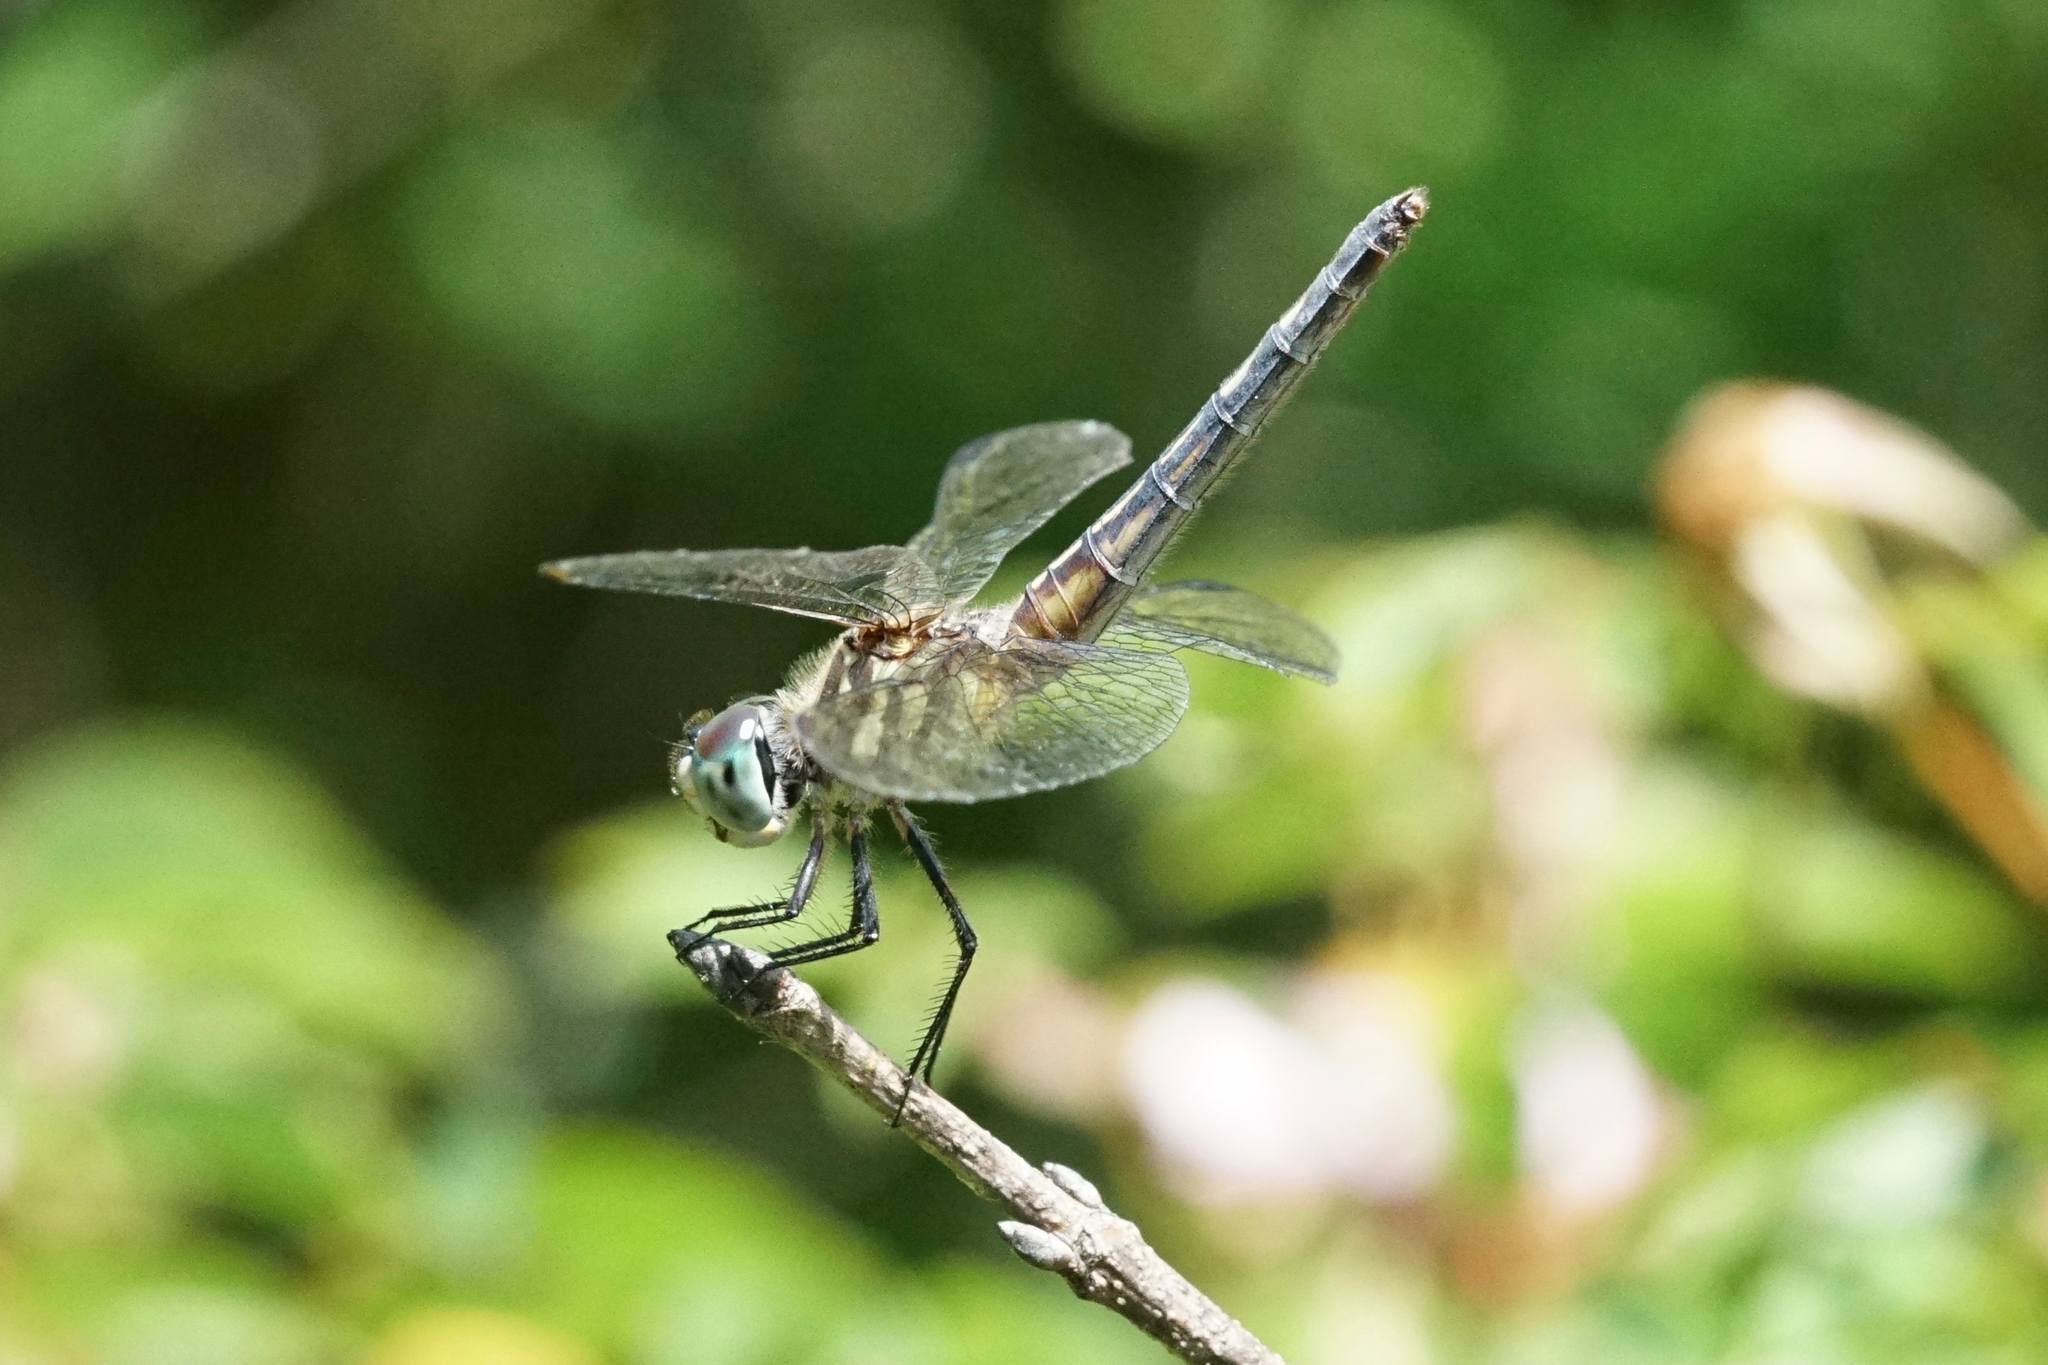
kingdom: Animalia
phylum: Arthropoda
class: Insecta
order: Odonata
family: Libellulidae
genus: Pachydiplax
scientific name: Pachydiplax longipennis
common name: Blue dasher
